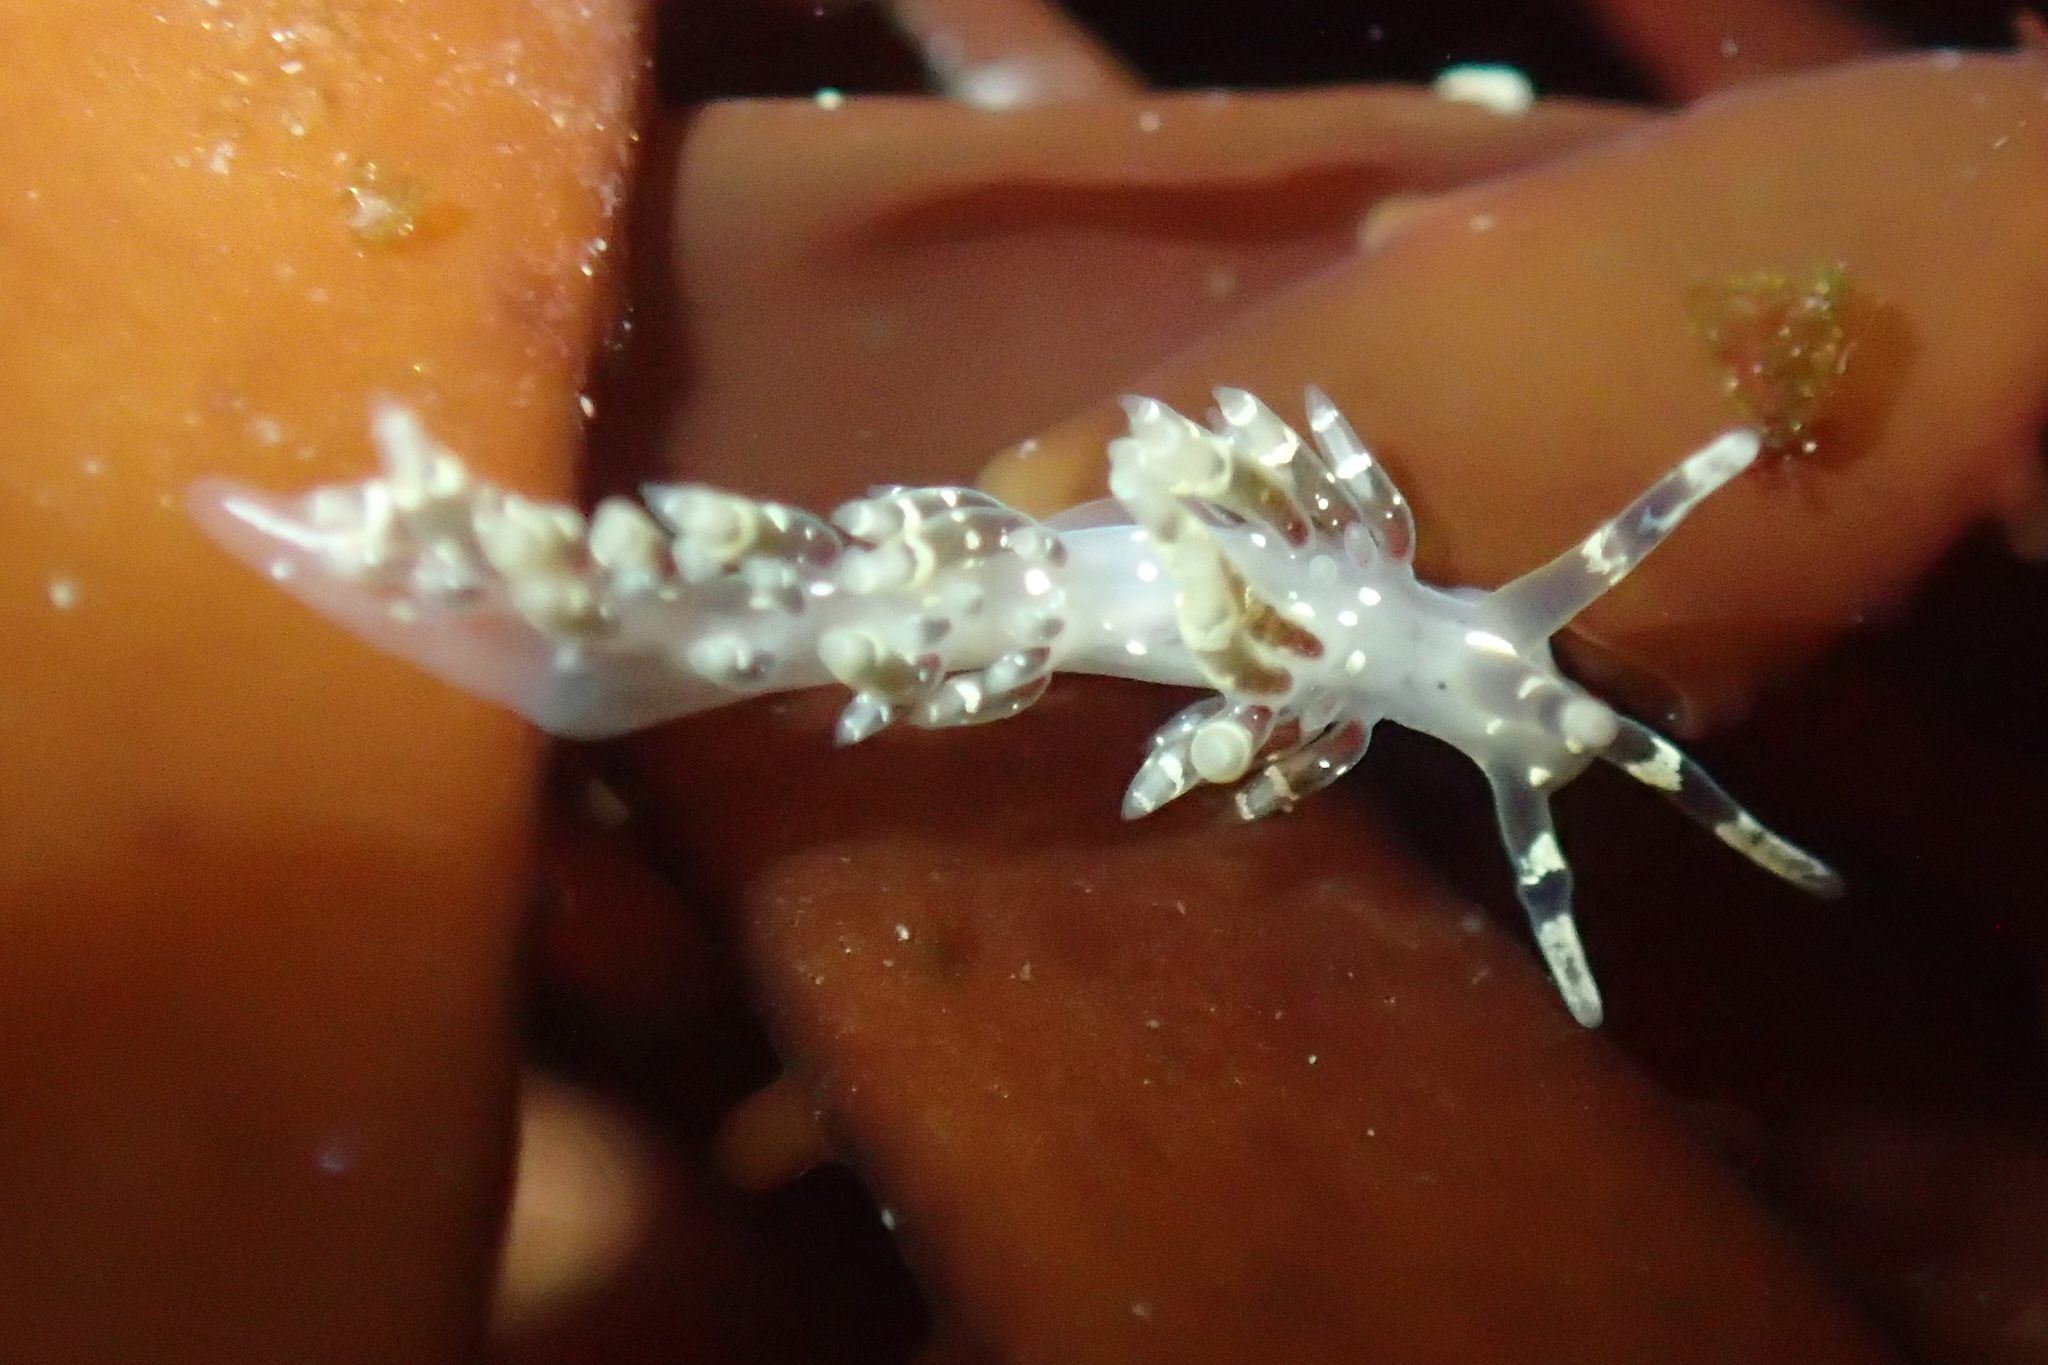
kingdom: Animalia
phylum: Mollusca
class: Gastropoda
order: Nudibranchia
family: Abronicidae
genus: Abronica
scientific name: Abronica abronia
